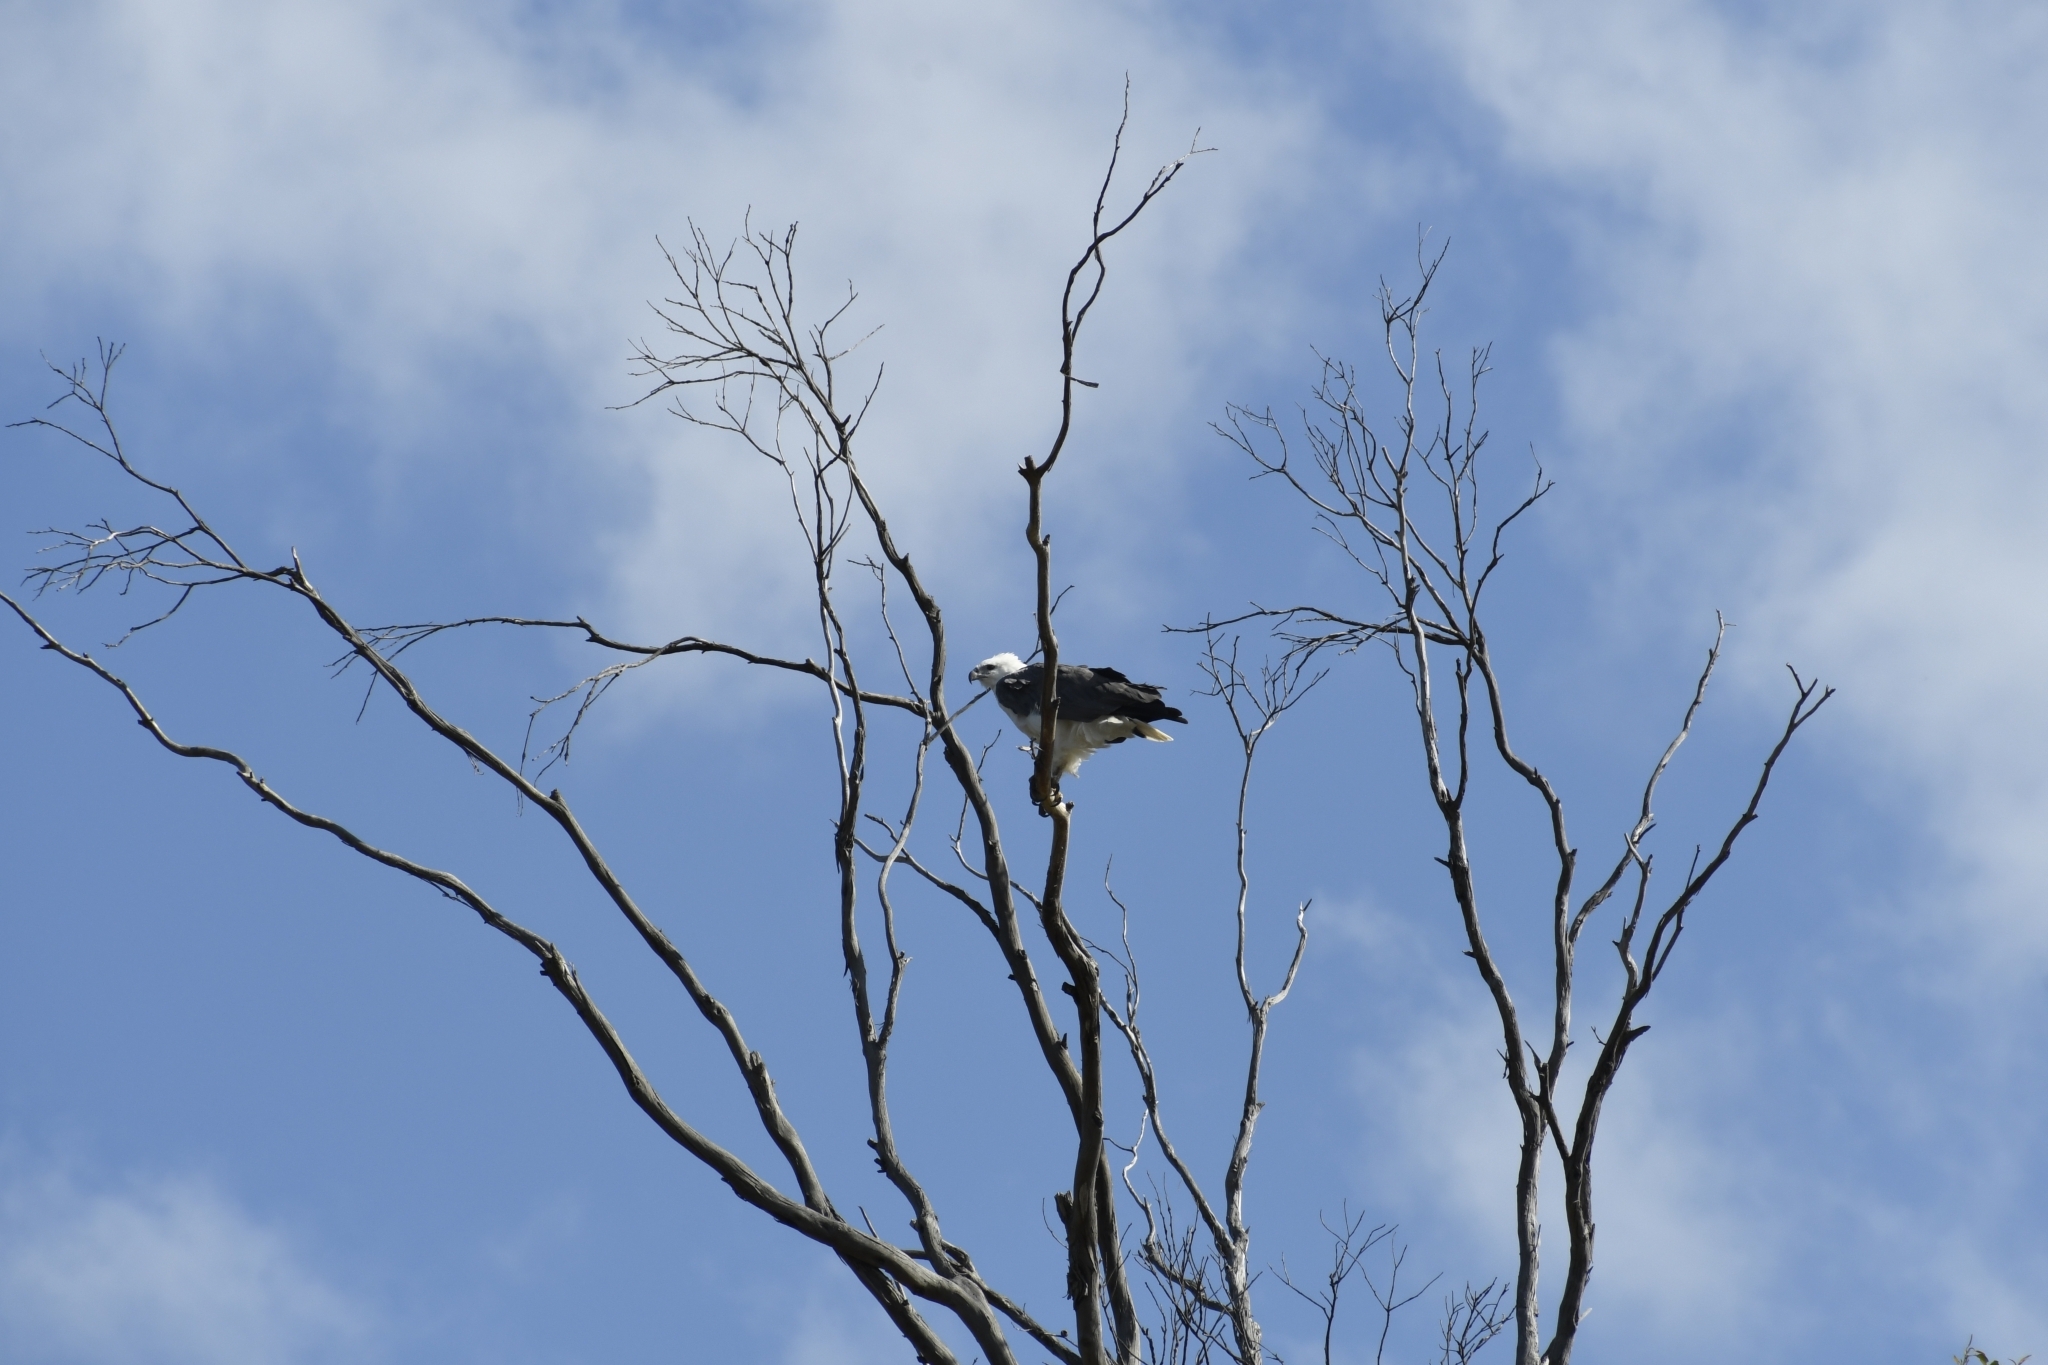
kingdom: Animalia
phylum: Chordata
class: Aves
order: Accipitriformes
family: Accipitridae
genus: Haliaeetus
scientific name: Haliaeetus leucogaster
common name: White-bellied sea eagle
